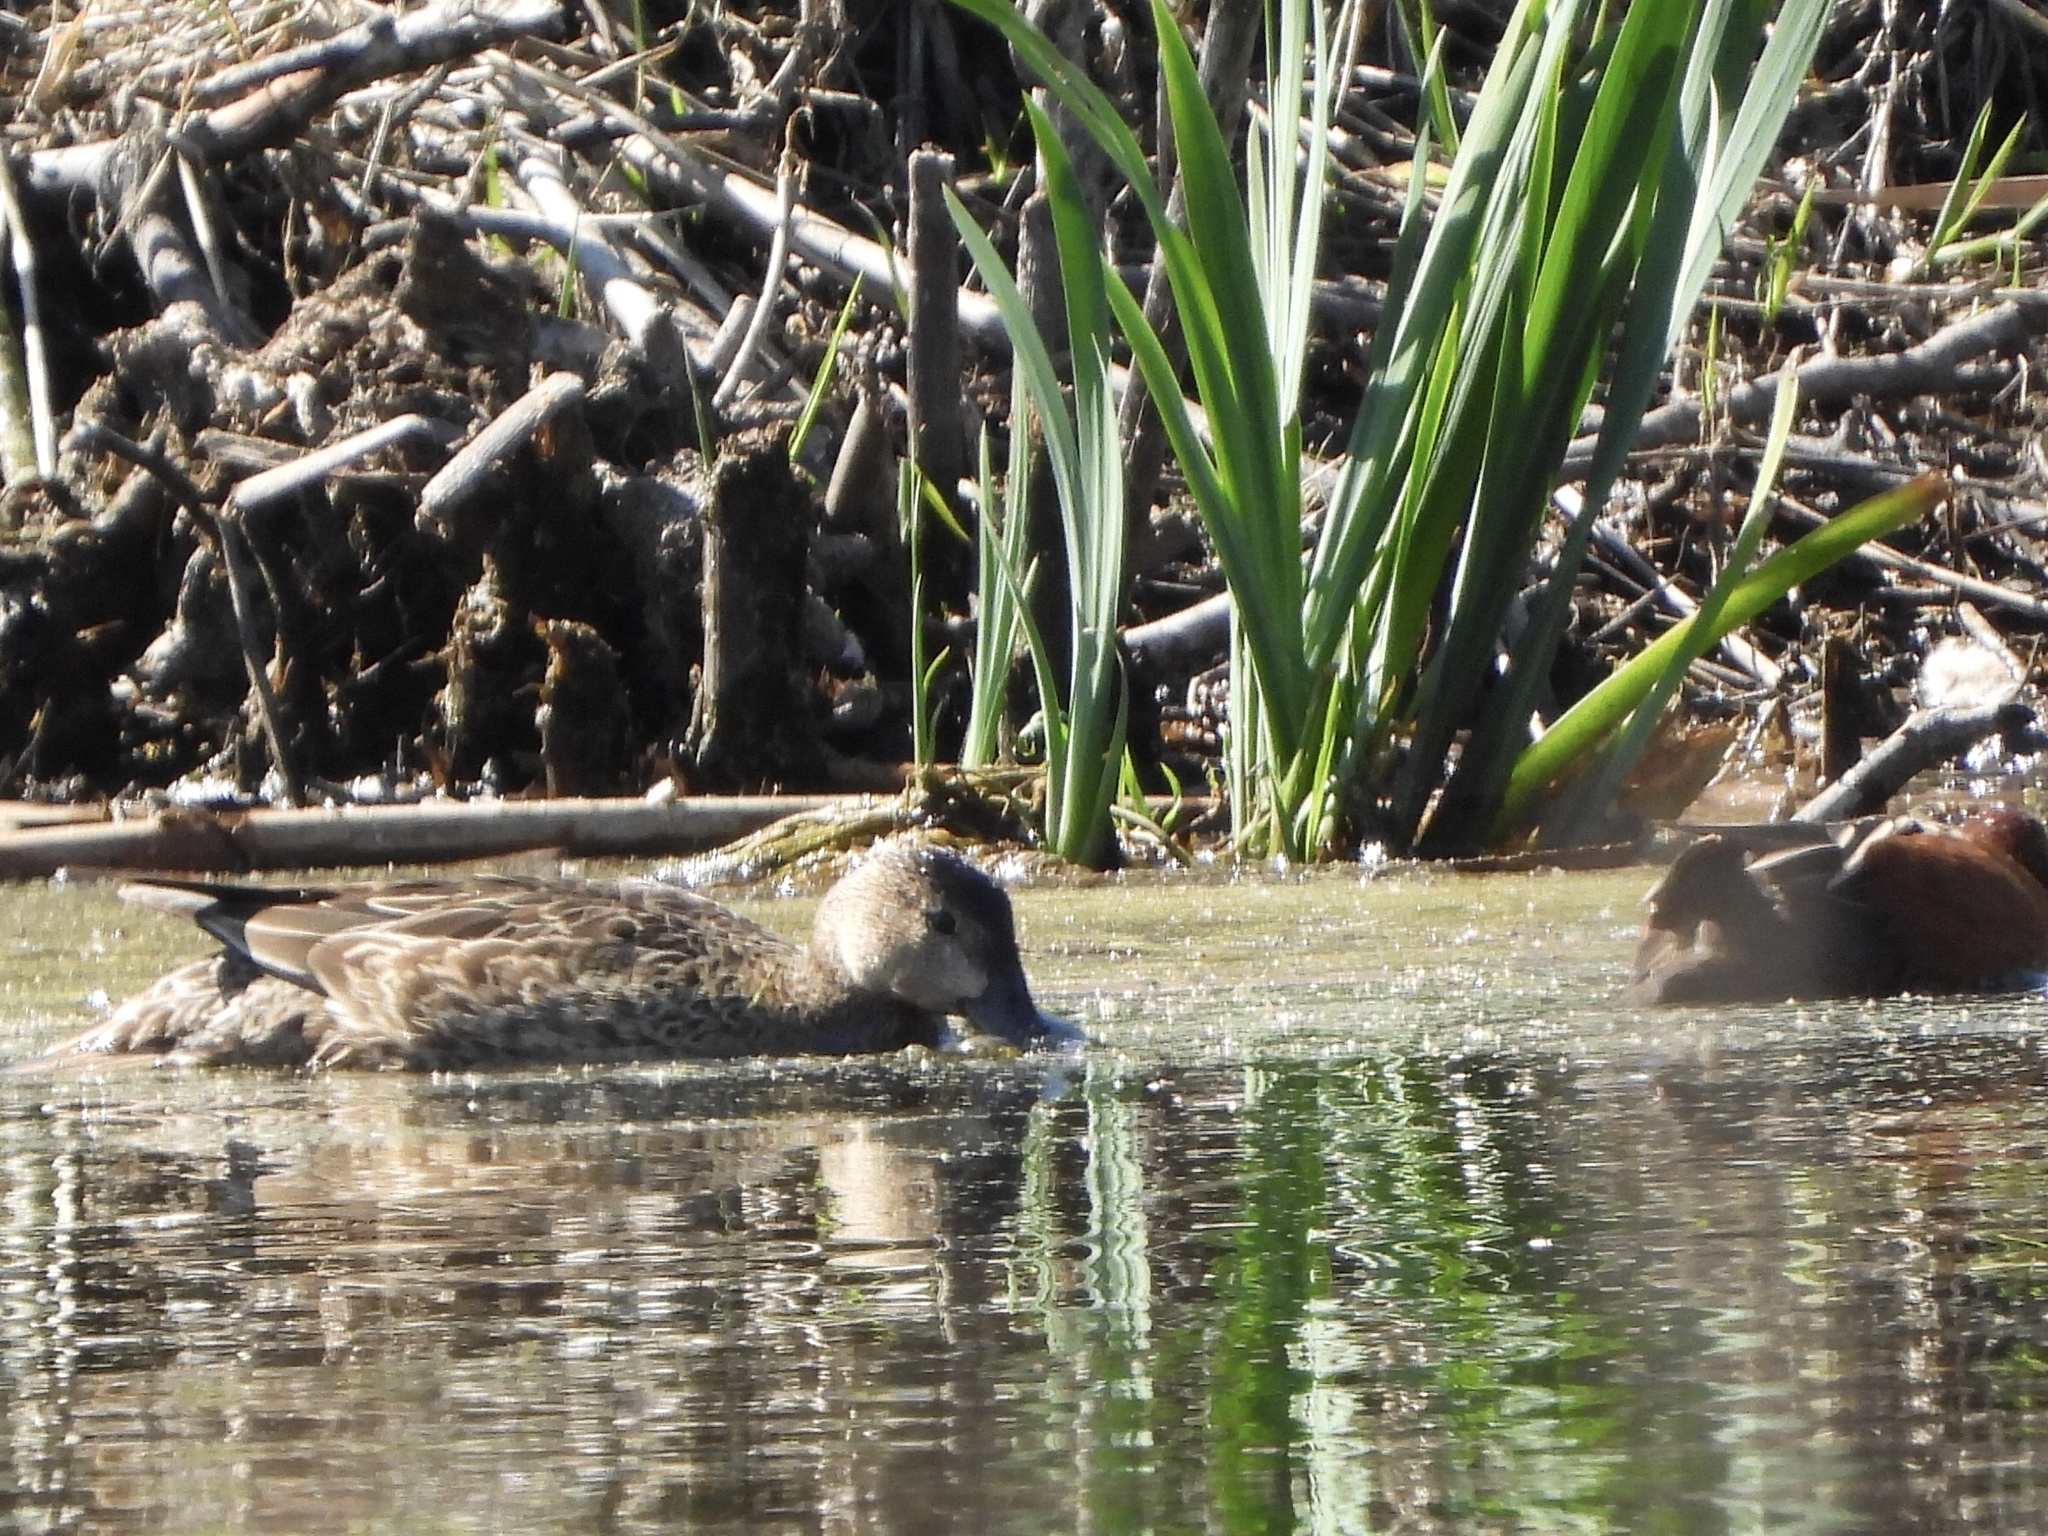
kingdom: Animalia
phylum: Chordata
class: Aves
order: Anseriformes
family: Anatidae
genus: Spatula
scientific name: Spatula cyanoptera
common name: Cinnamon teal
